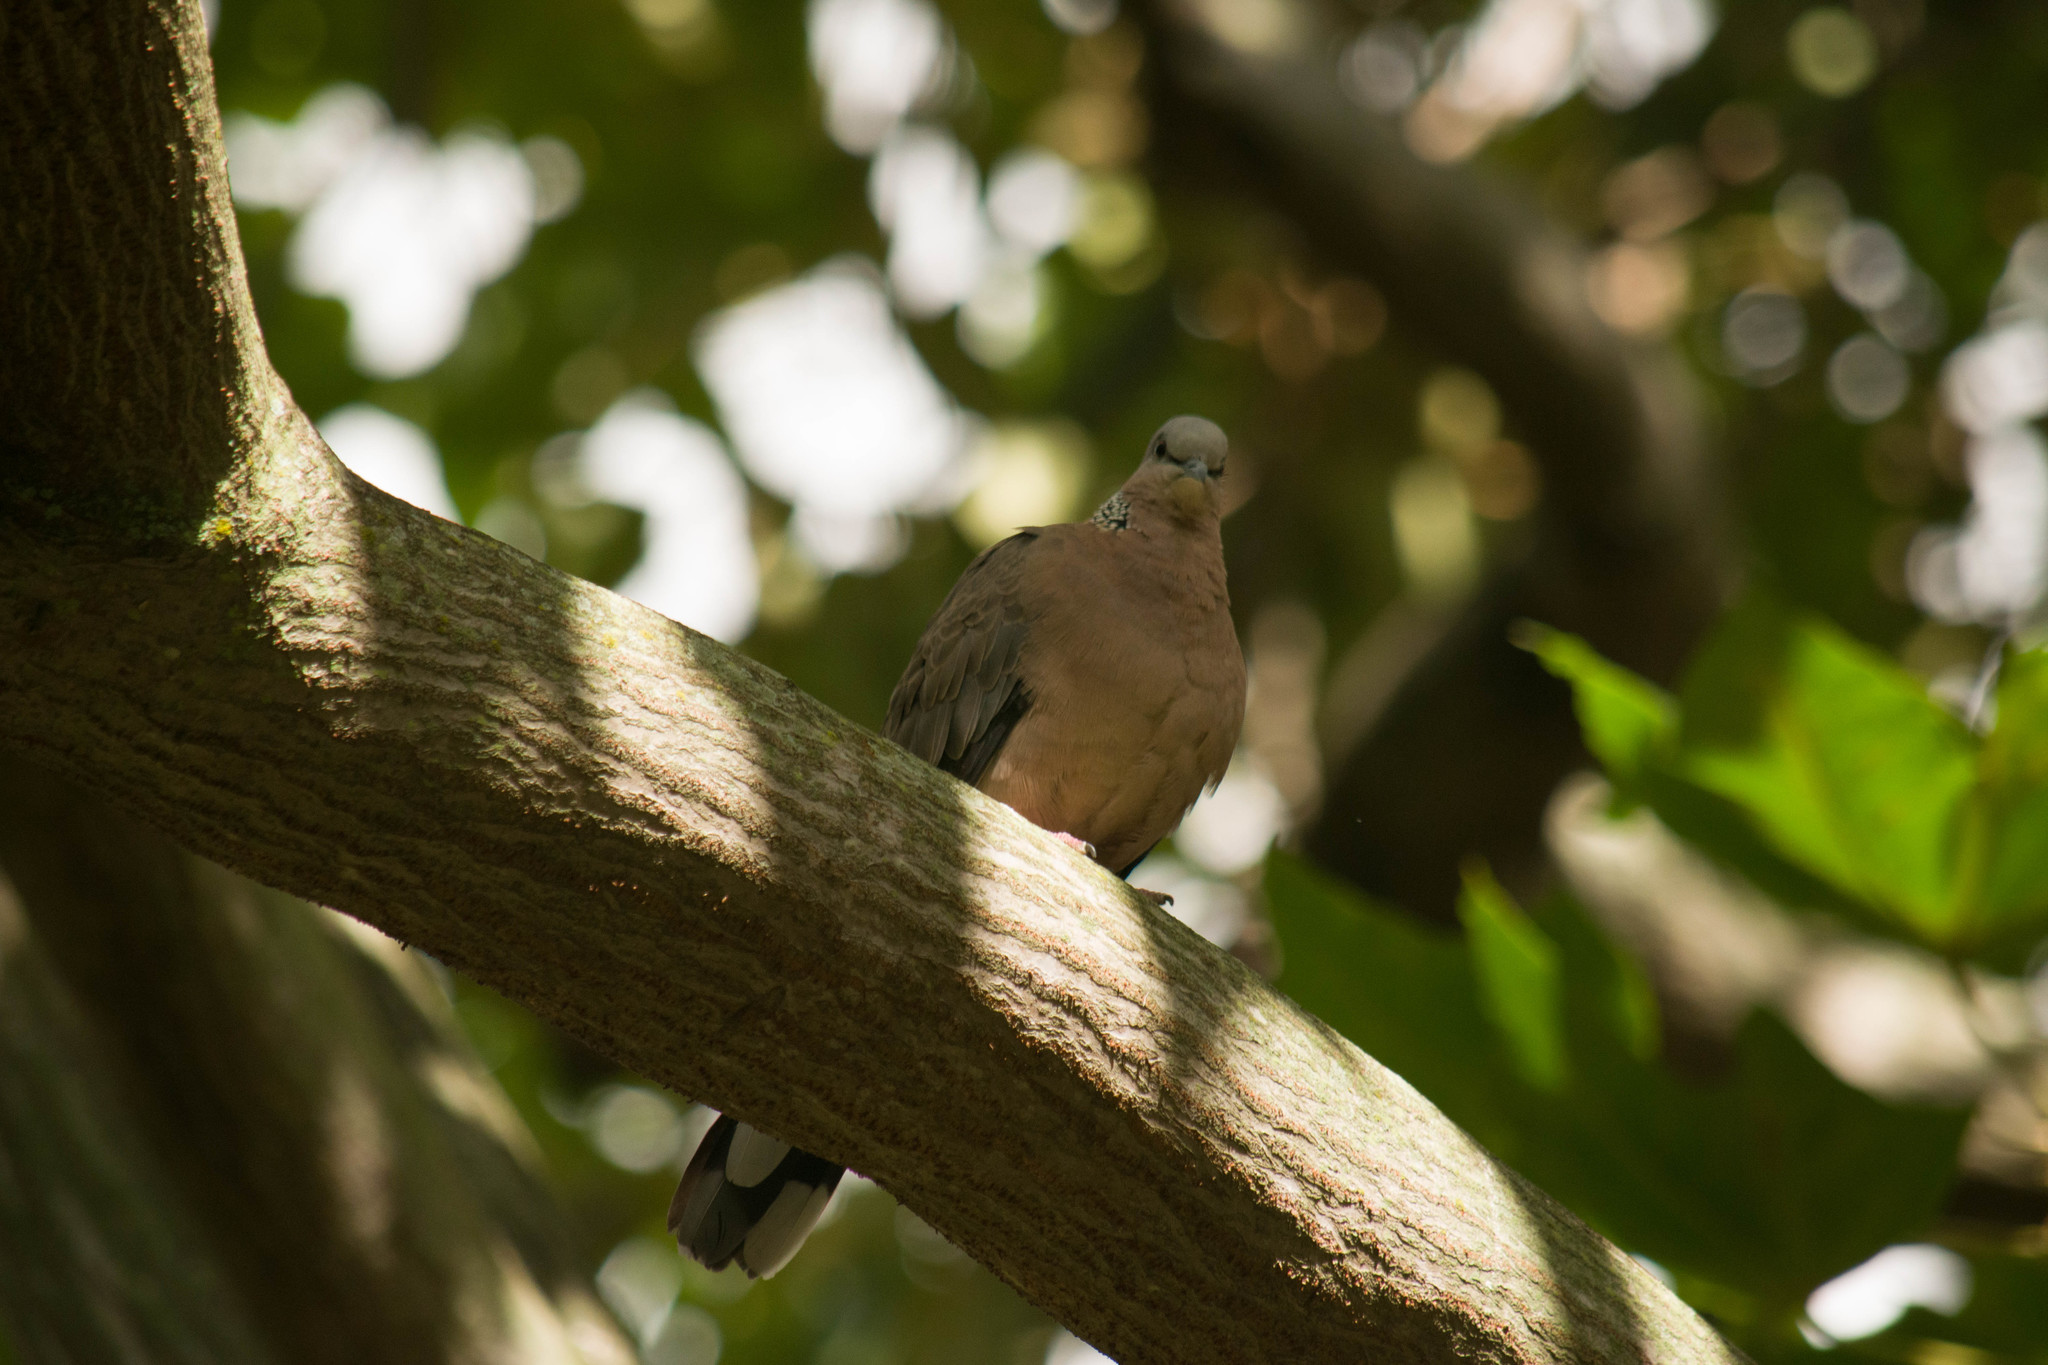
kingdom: Animalia
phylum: Chordata
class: Aves
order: Columbiformes
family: Columbidae
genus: Spilopelia
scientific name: Spilopelia chinensis
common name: Spotted dove
